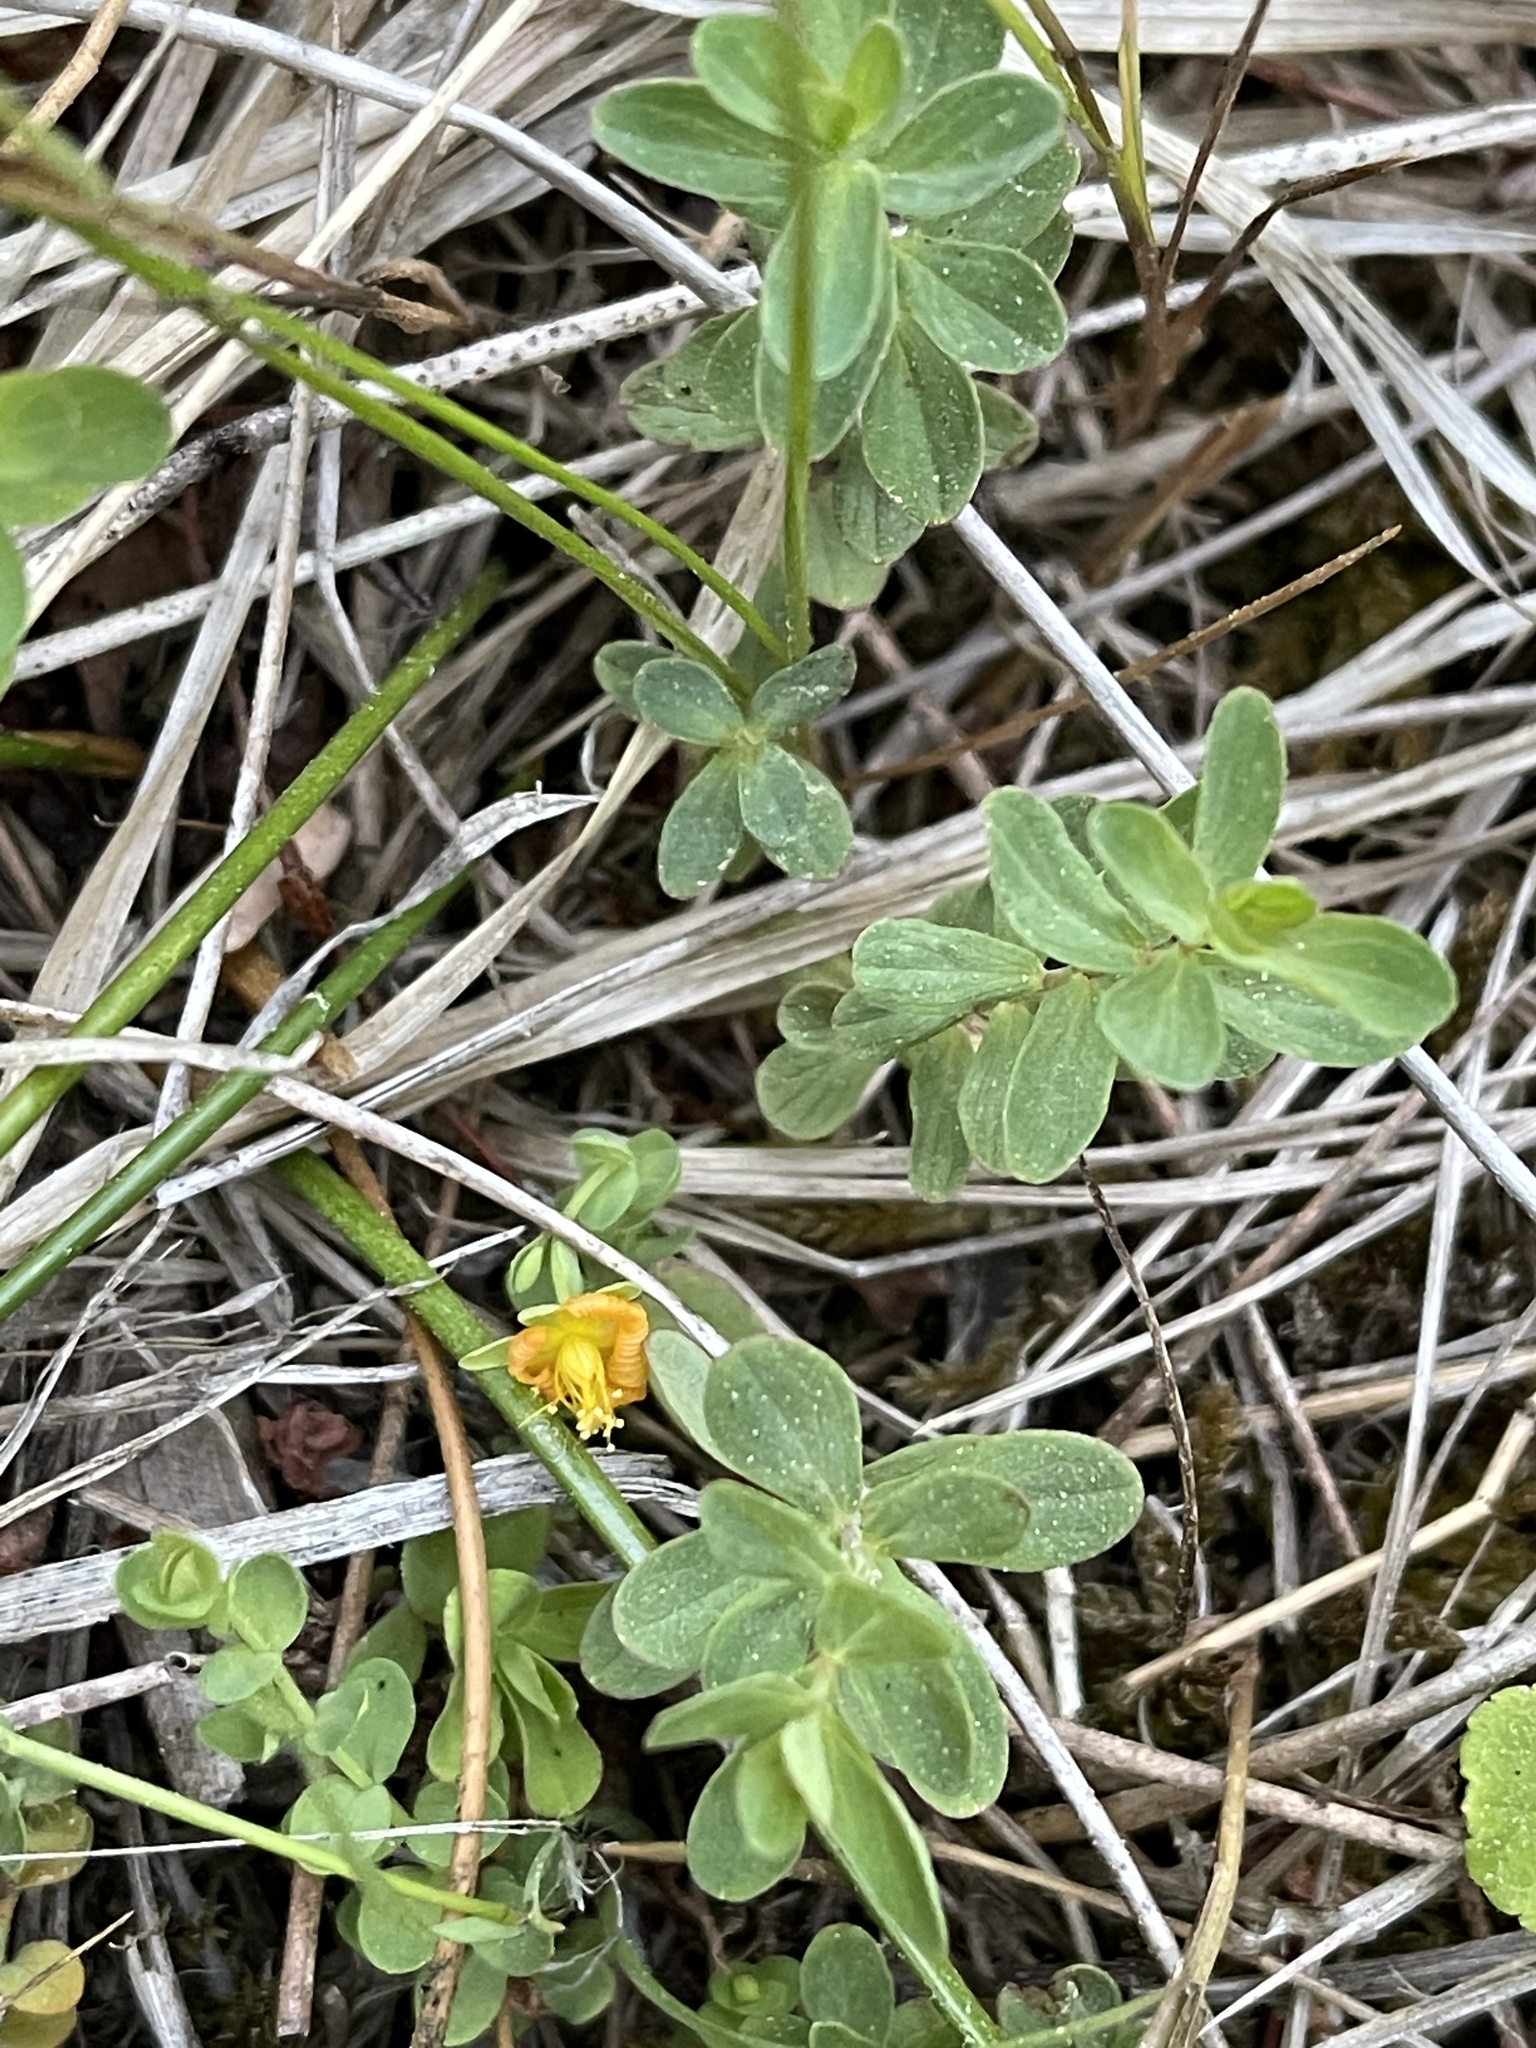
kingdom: Plantae
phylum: Tracheophyta
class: Magnoliopsida
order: Malpighiales
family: Hypericaceae
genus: Hypericum
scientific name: Hypericum anagalloides
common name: Bog st. john's-wort
